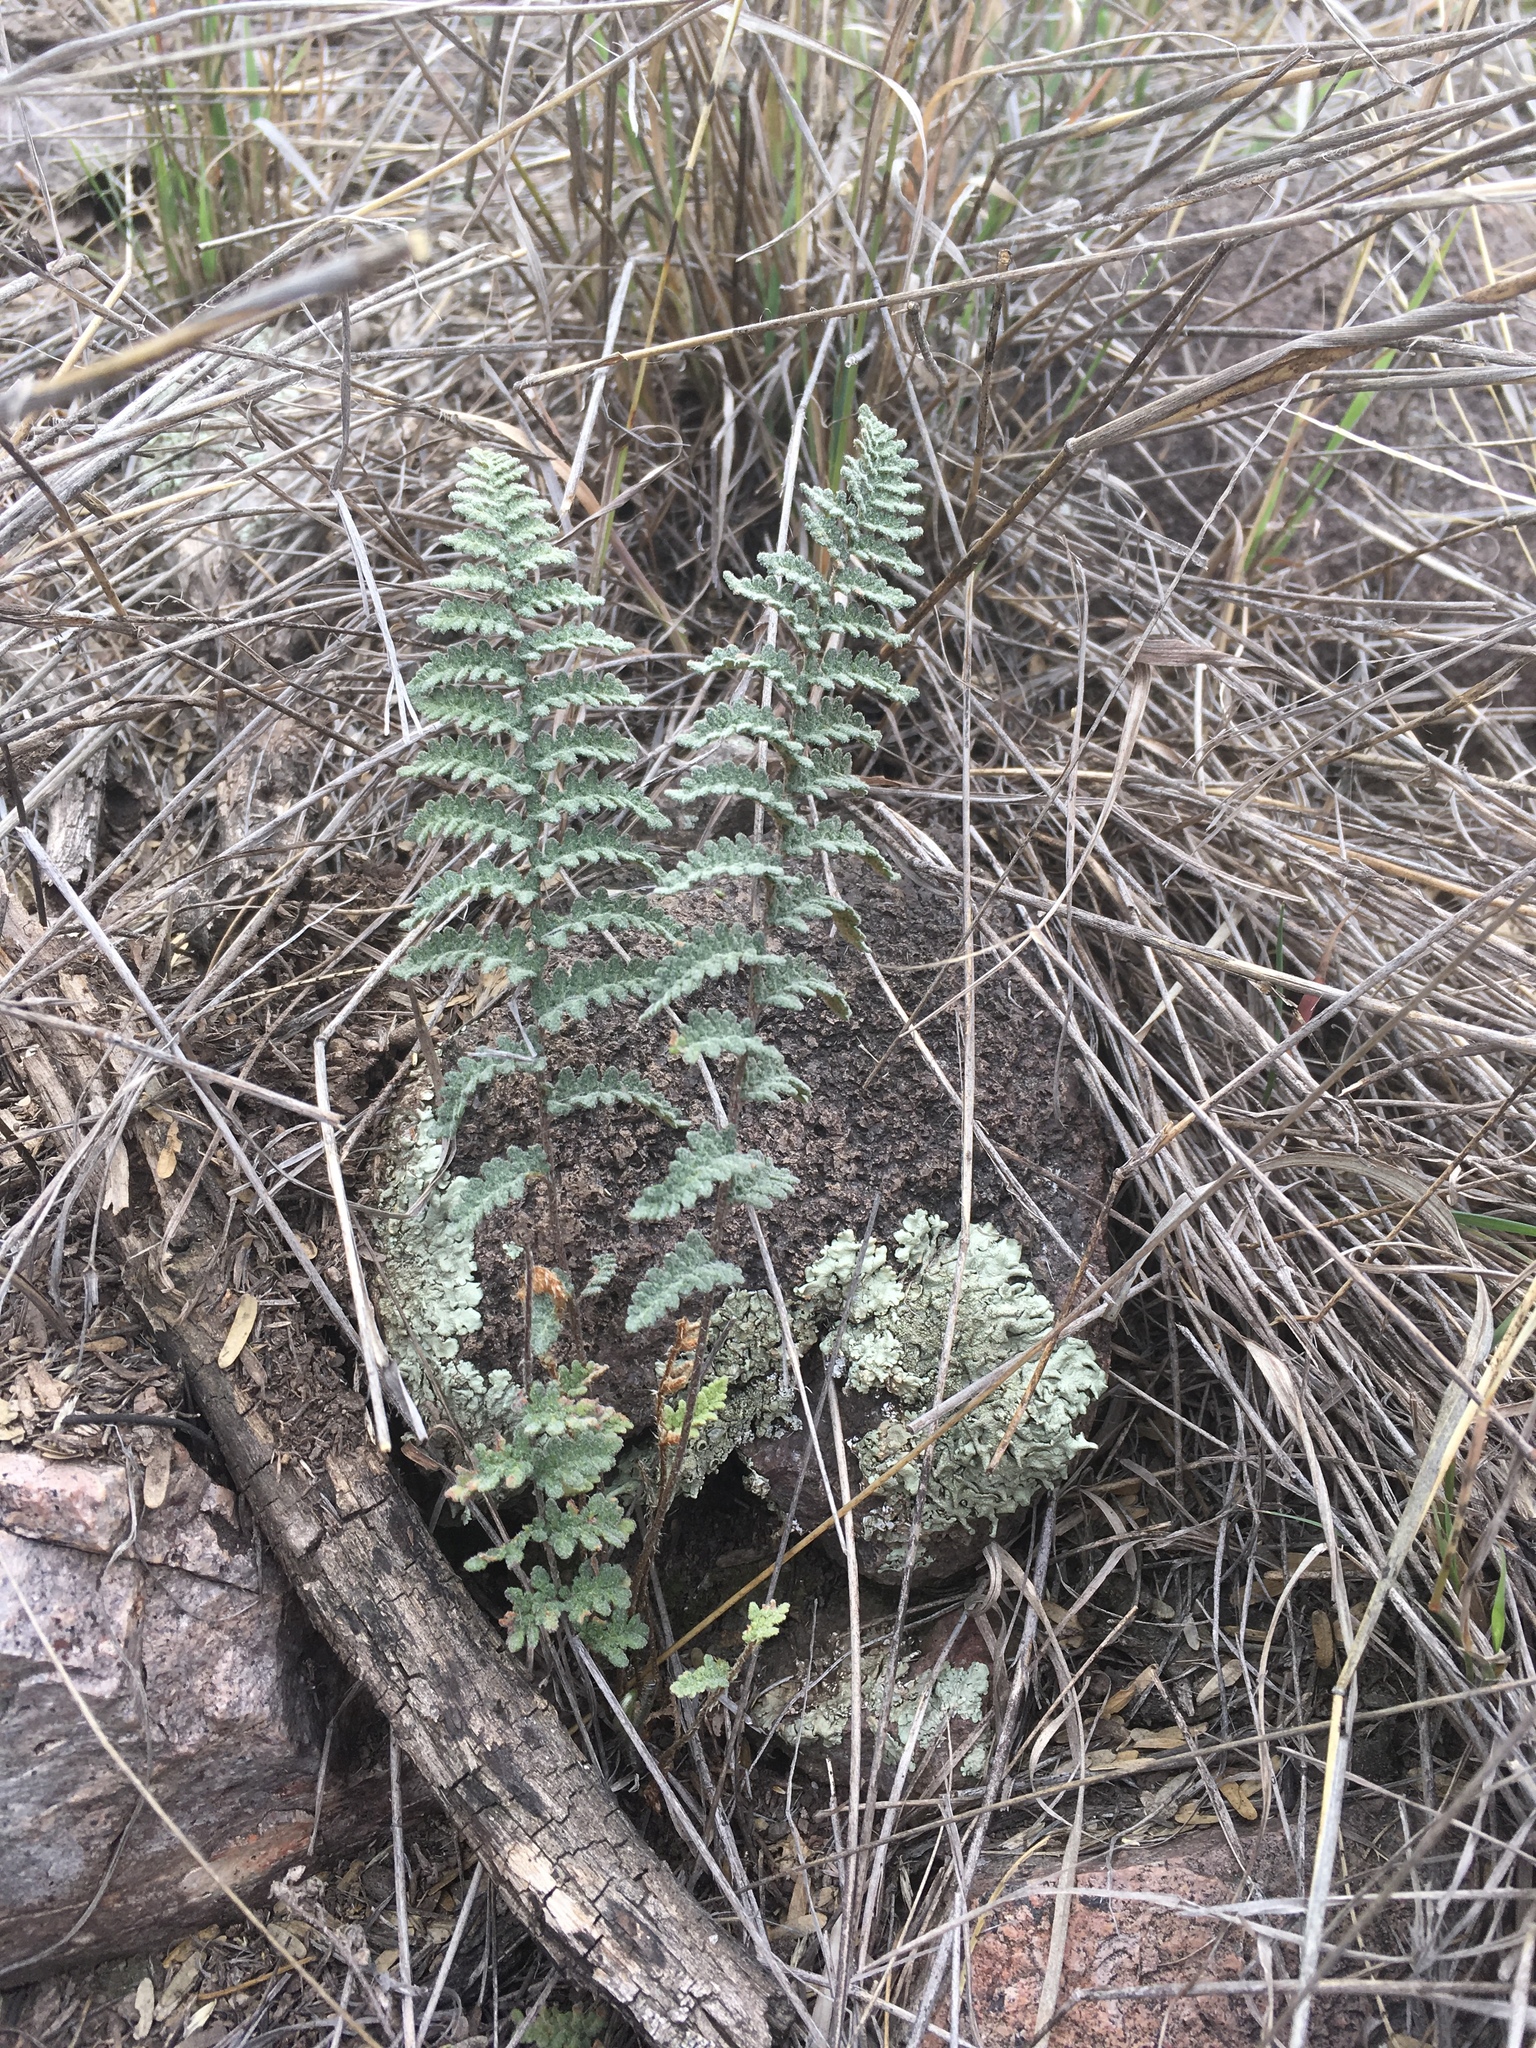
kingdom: Plantae
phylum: Tracheophyta
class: Polypodiopsida
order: Polypodiales
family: Pteridaceae
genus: Myriopteris
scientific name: Myriopteris rufa
